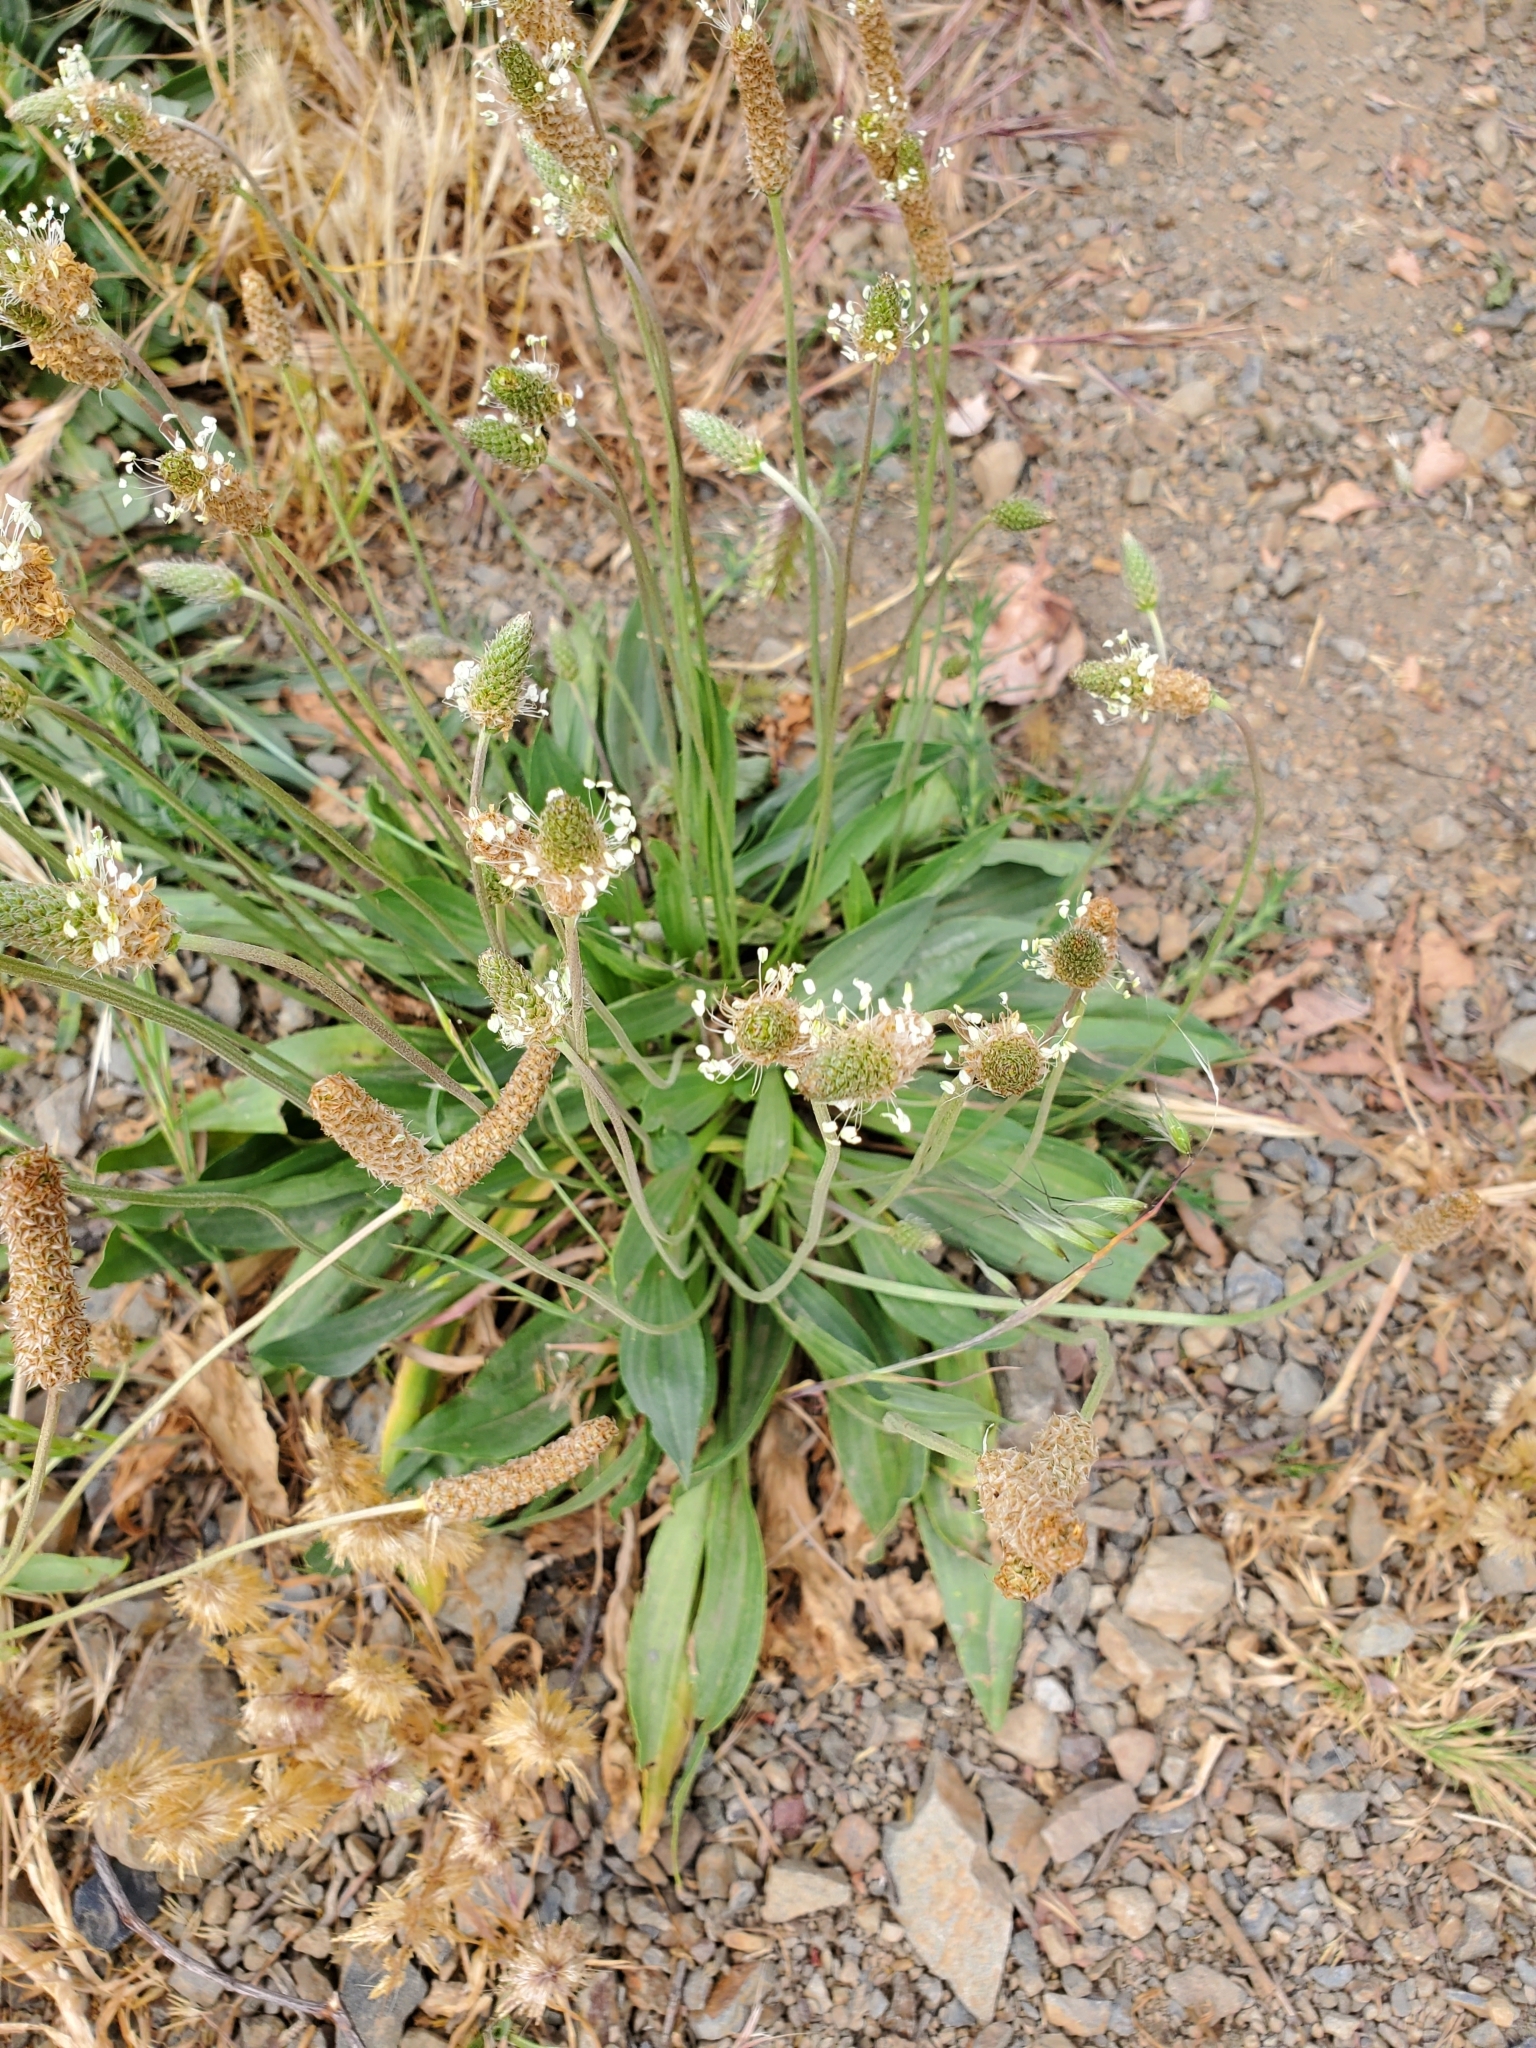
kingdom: Plantae
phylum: Tracheophyta
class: Magnoliopsida
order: Lamiales
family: Plantaginaceae
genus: Plantago
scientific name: Plantago lanceolata
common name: Ribwort plantain
